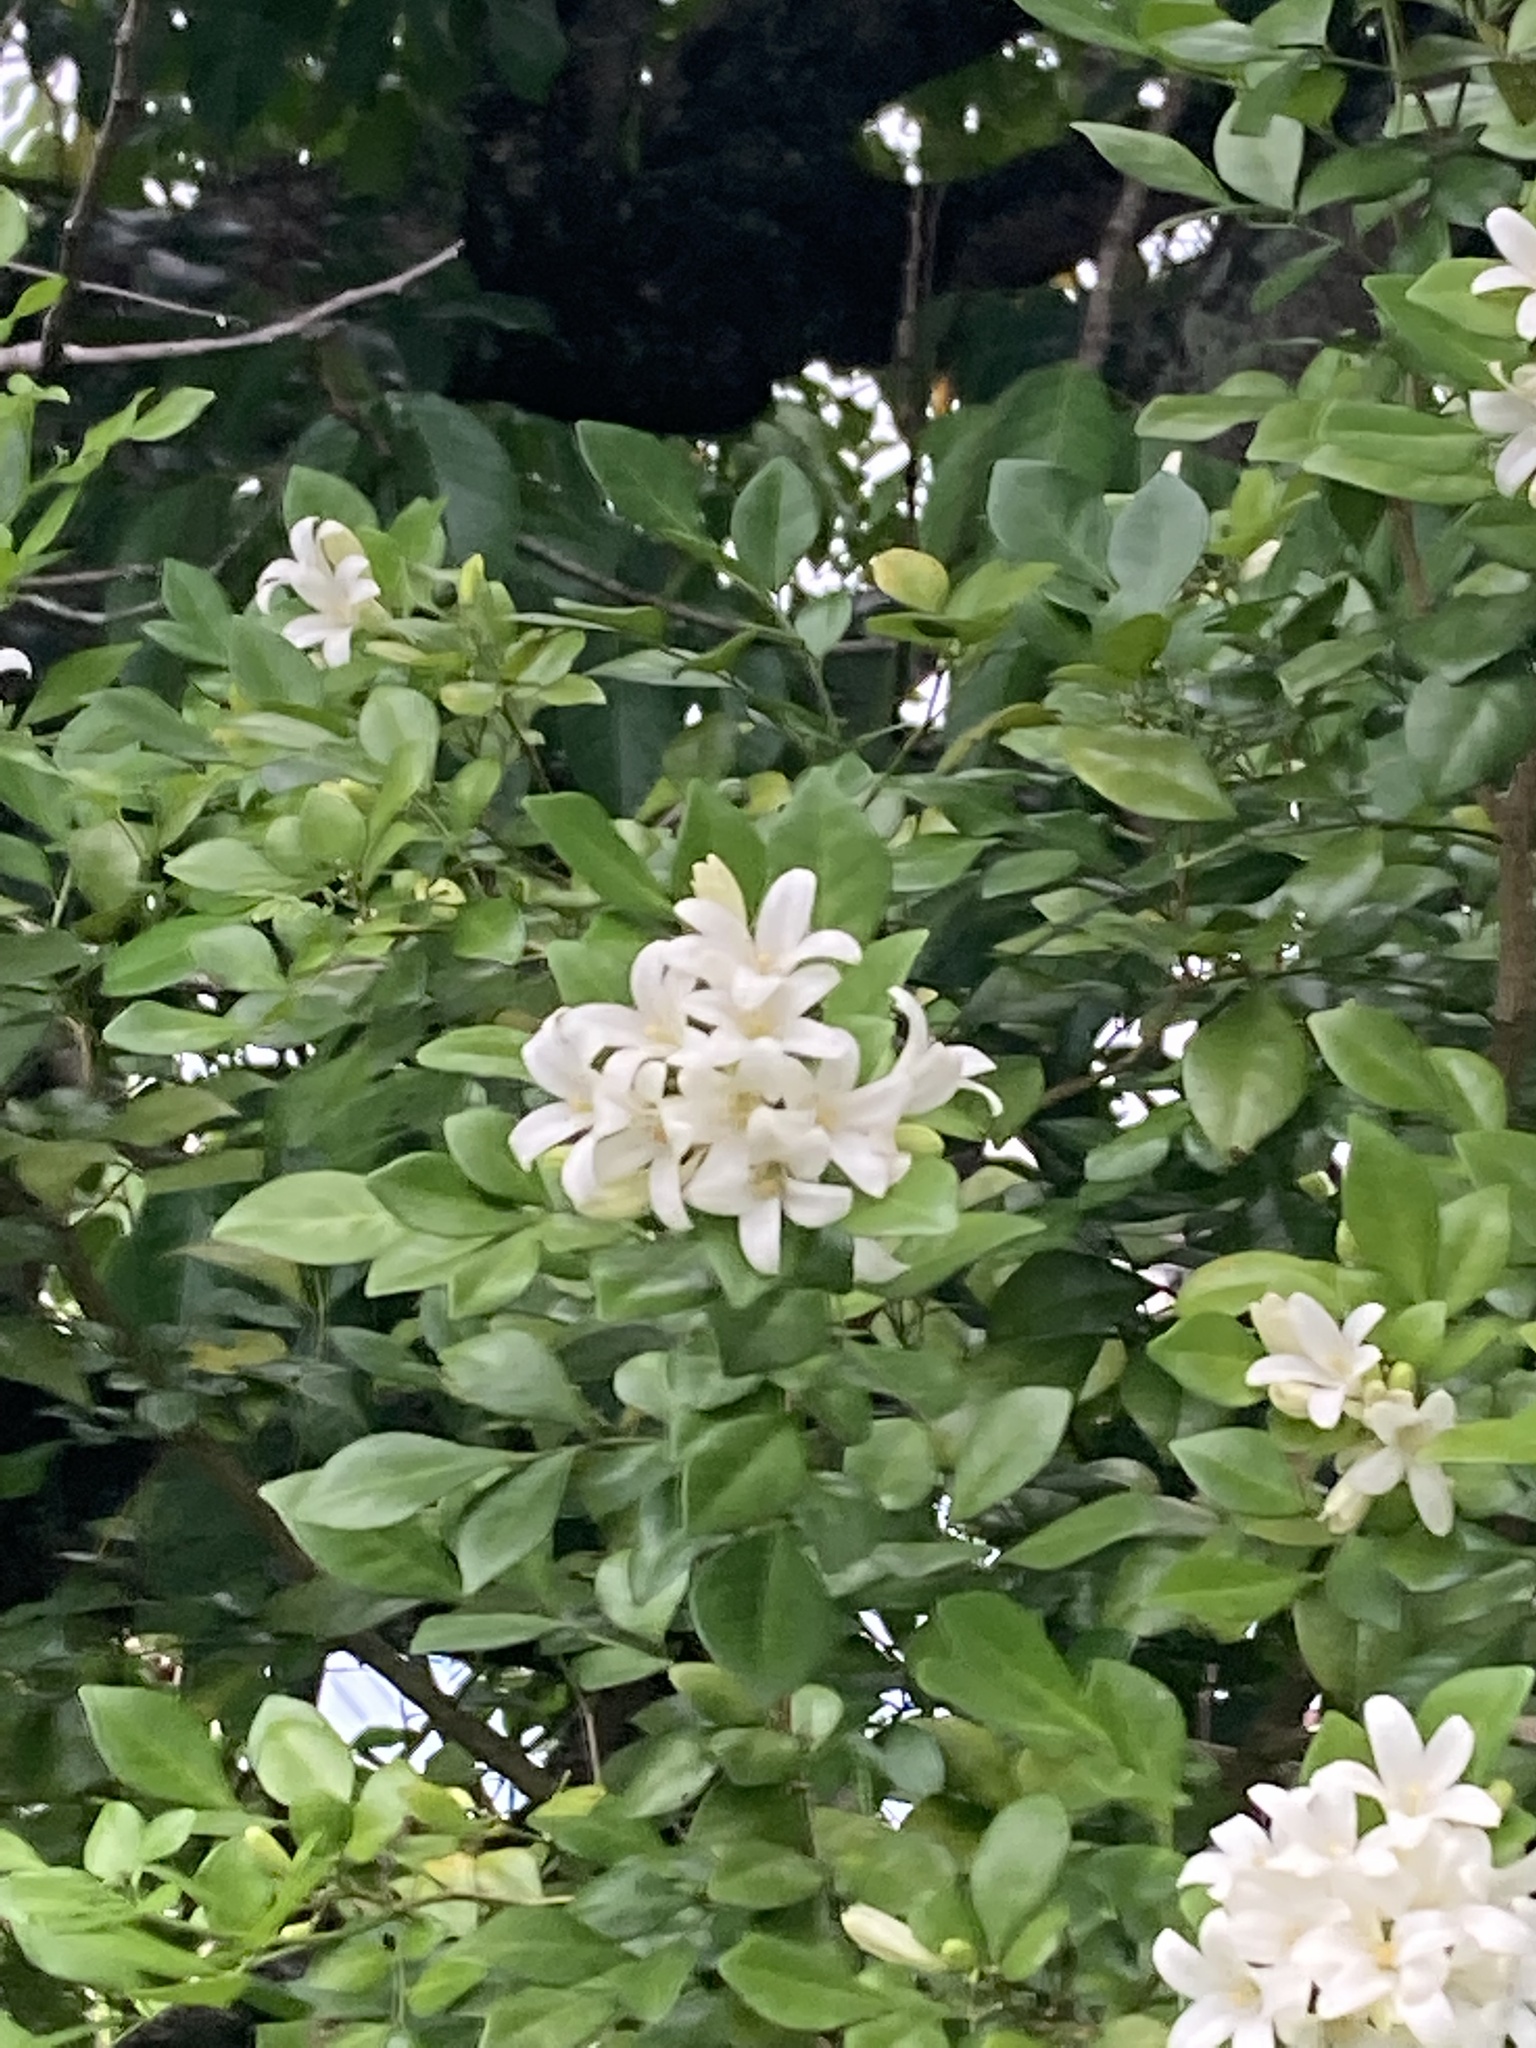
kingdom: Plantae
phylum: Tracheophyta
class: Magnoliopsida
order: Sapindales
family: Rutaceae
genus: Murraya
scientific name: Murraya paniculata
